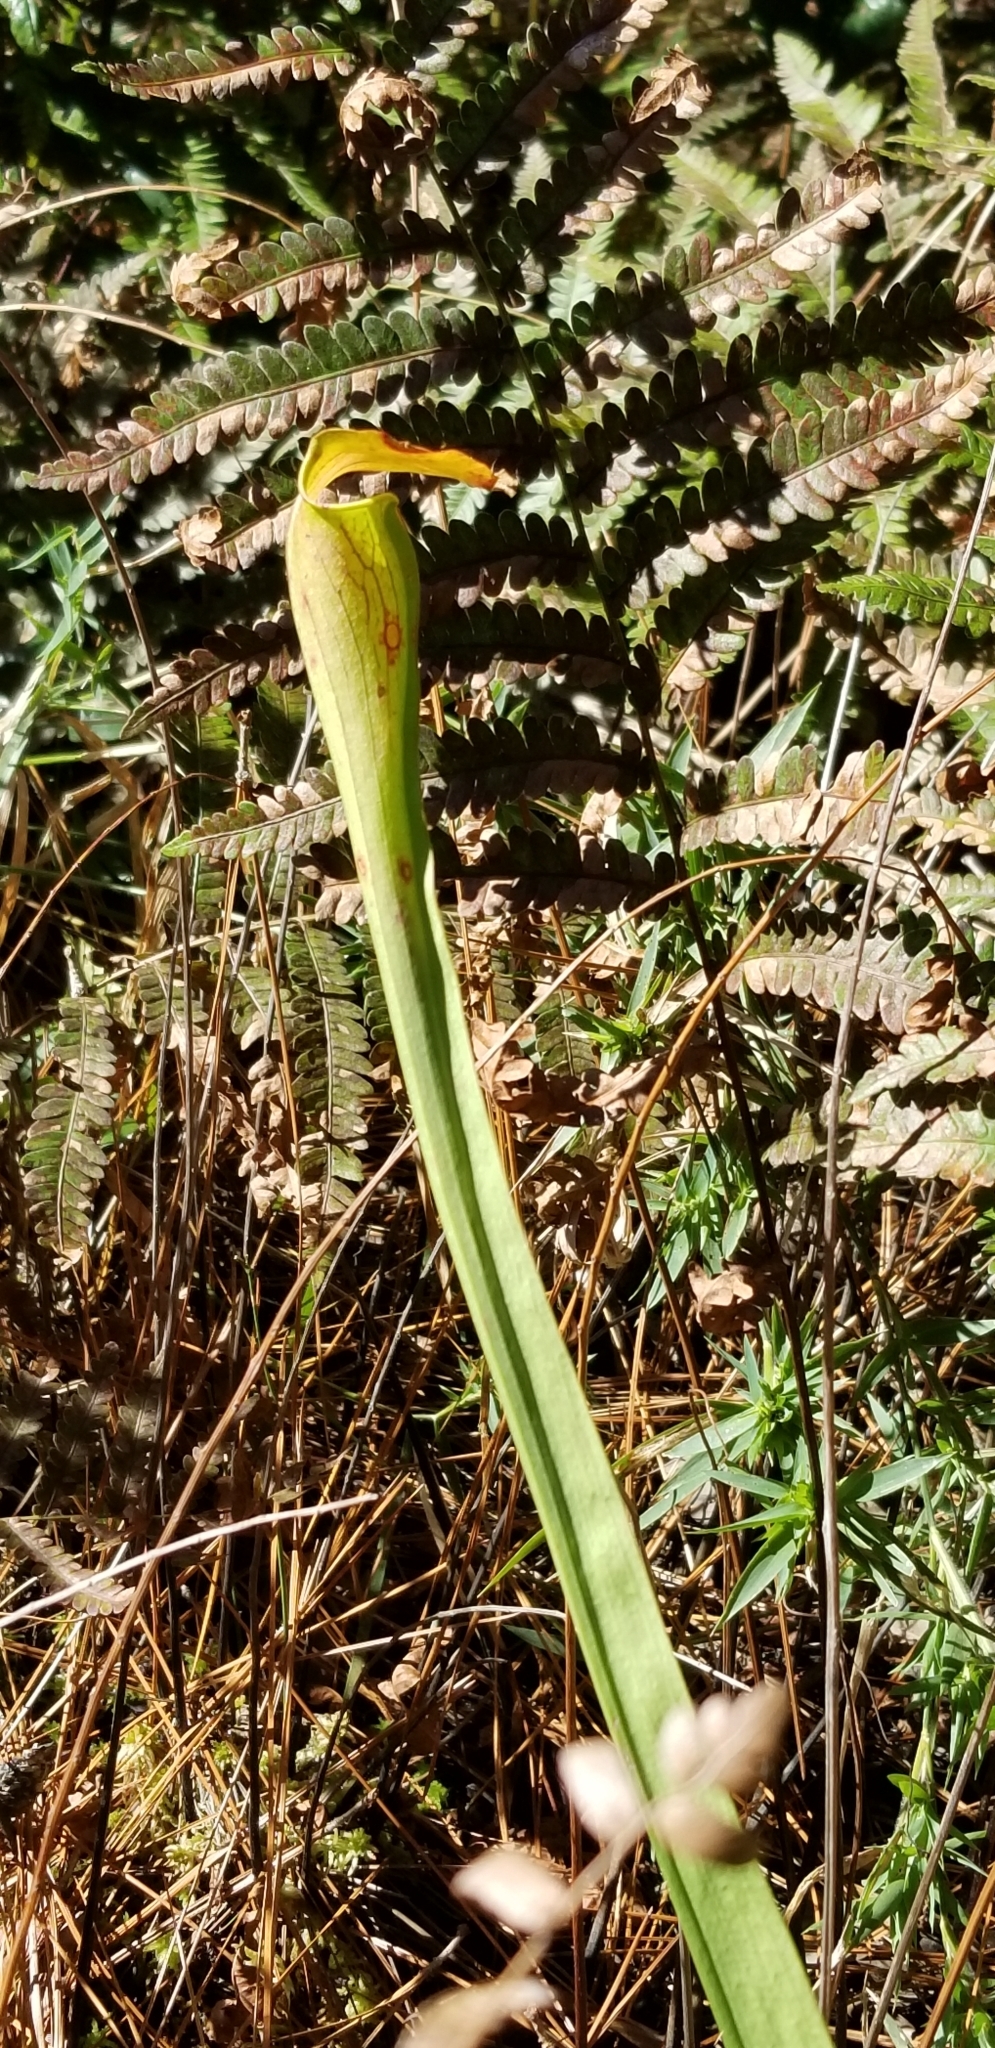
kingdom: Plantae
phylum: Tracheophyta
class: Magnoliopsida
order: Ericales
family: Sarraceniaceae
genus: Sarracenia
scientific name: Sarracenia alata
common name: Yellow trumpets
